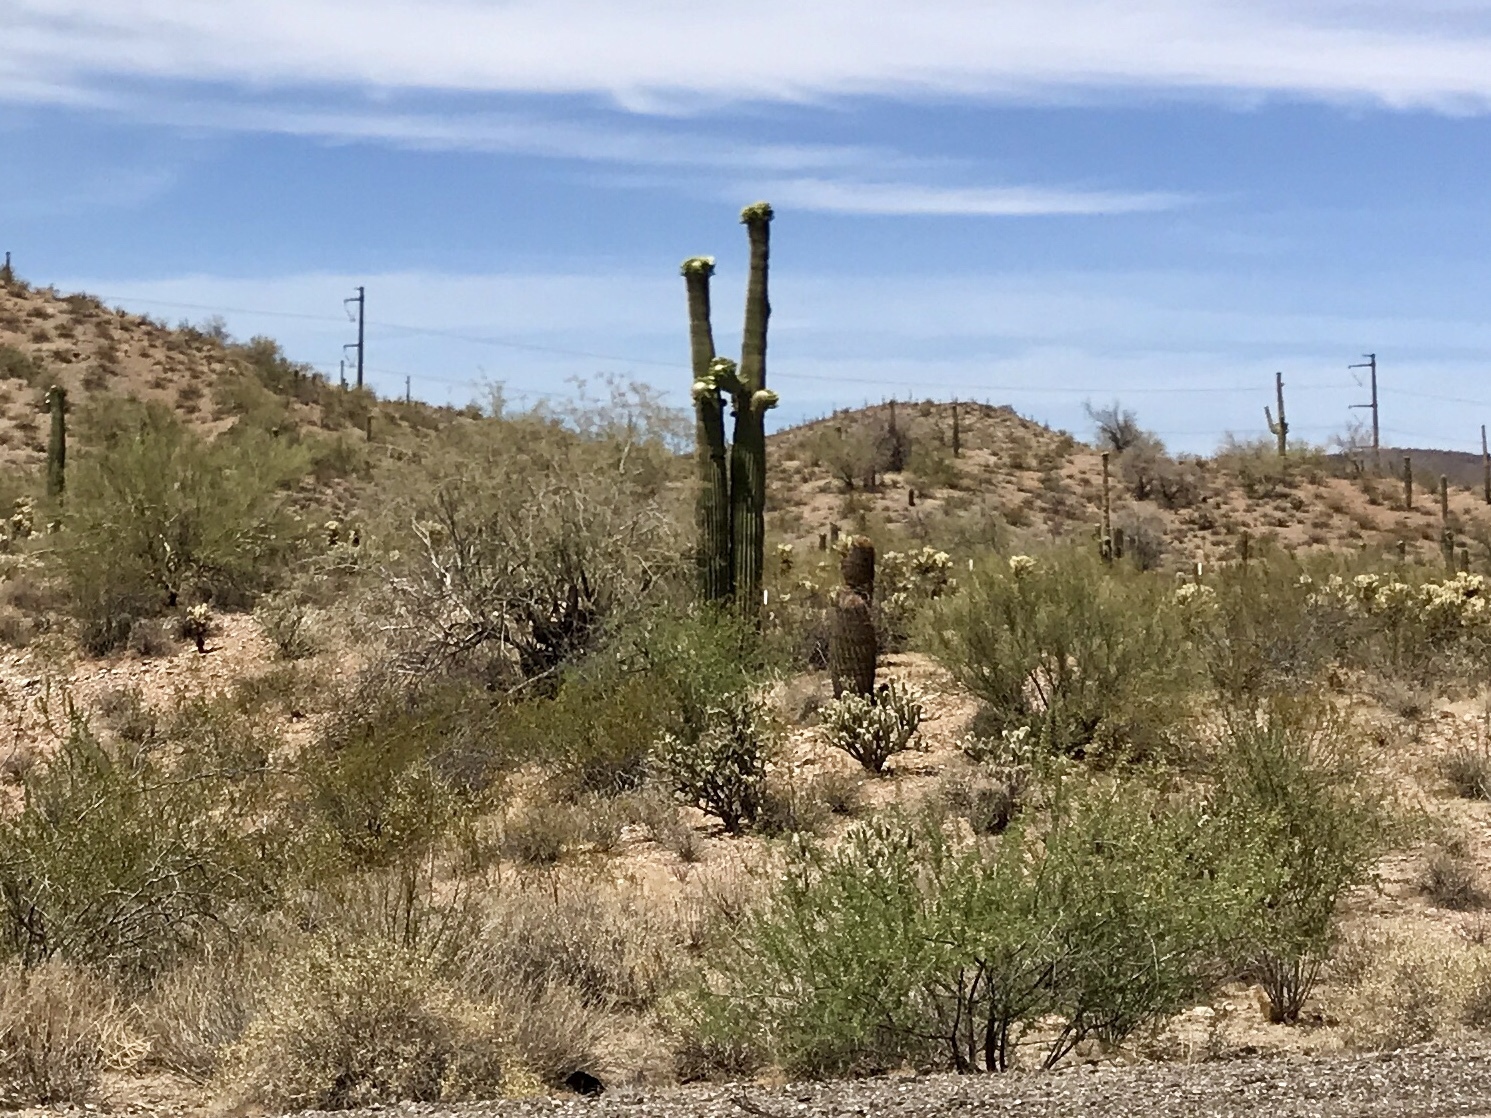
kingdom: Plantae
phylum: Tracheophyta
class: Magnoliopsida
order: Caryophyllales
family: Cactaceae
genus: Carnegiea
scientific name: Carnegiea gigantea
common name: Saguaro
